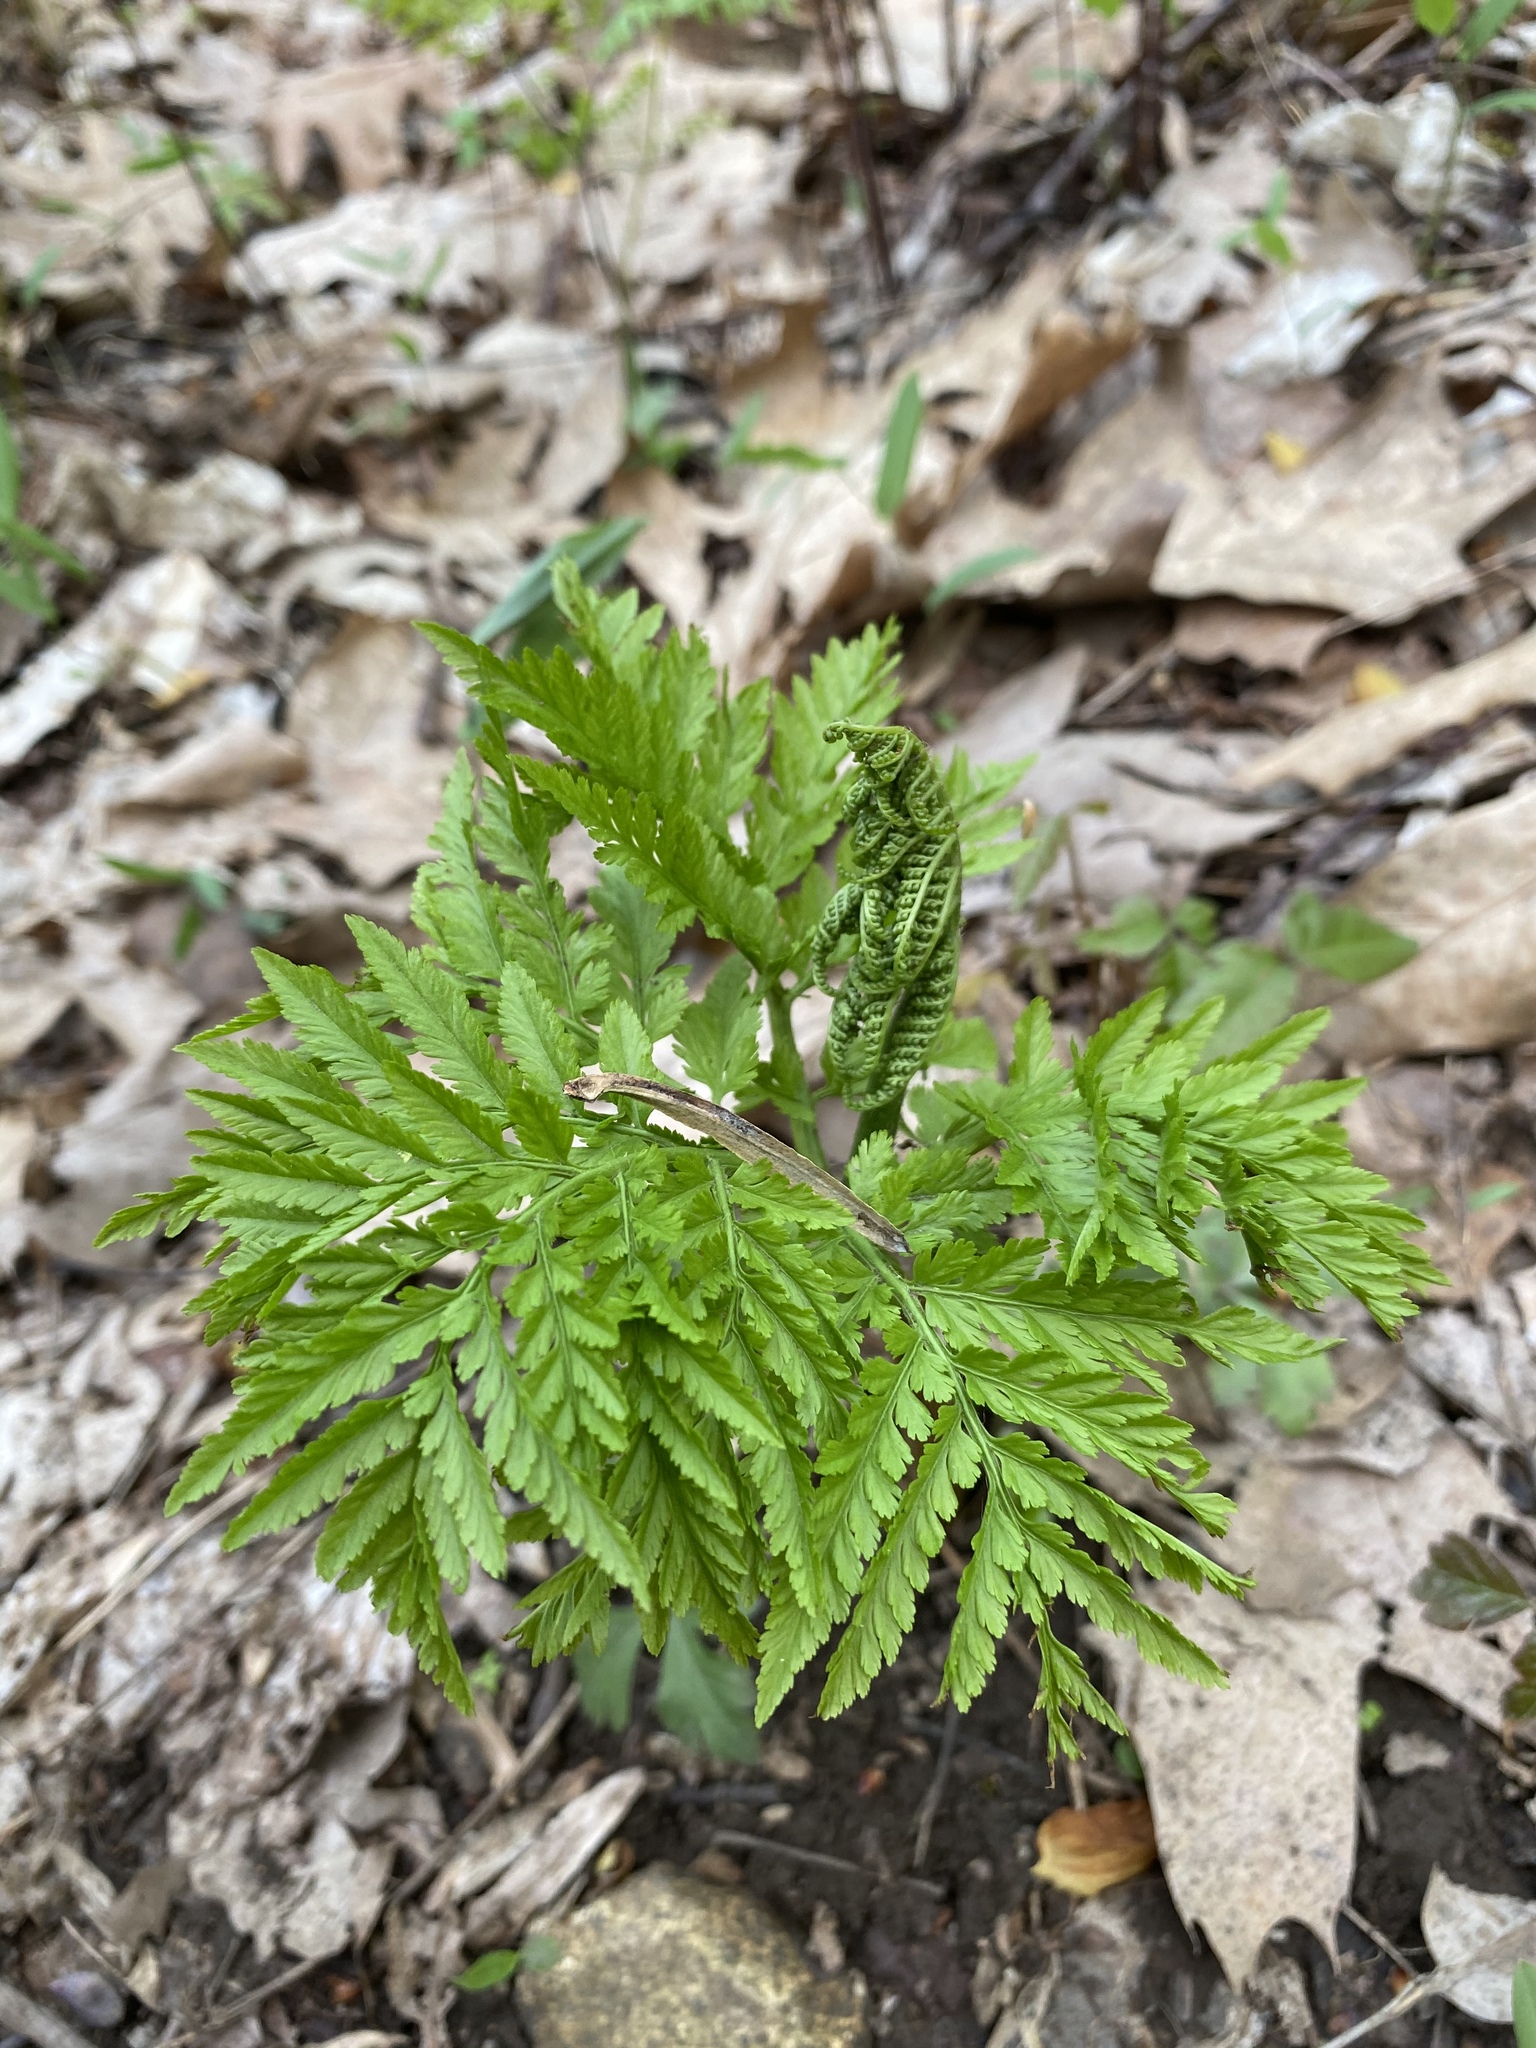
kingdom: Plantae
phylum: Tracheophyta
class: Polypodiopsida
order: Ophioglossales
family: Ophioglossaceae
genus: Botrypus
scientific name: Botrypus virginianus
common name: Common grapefern
